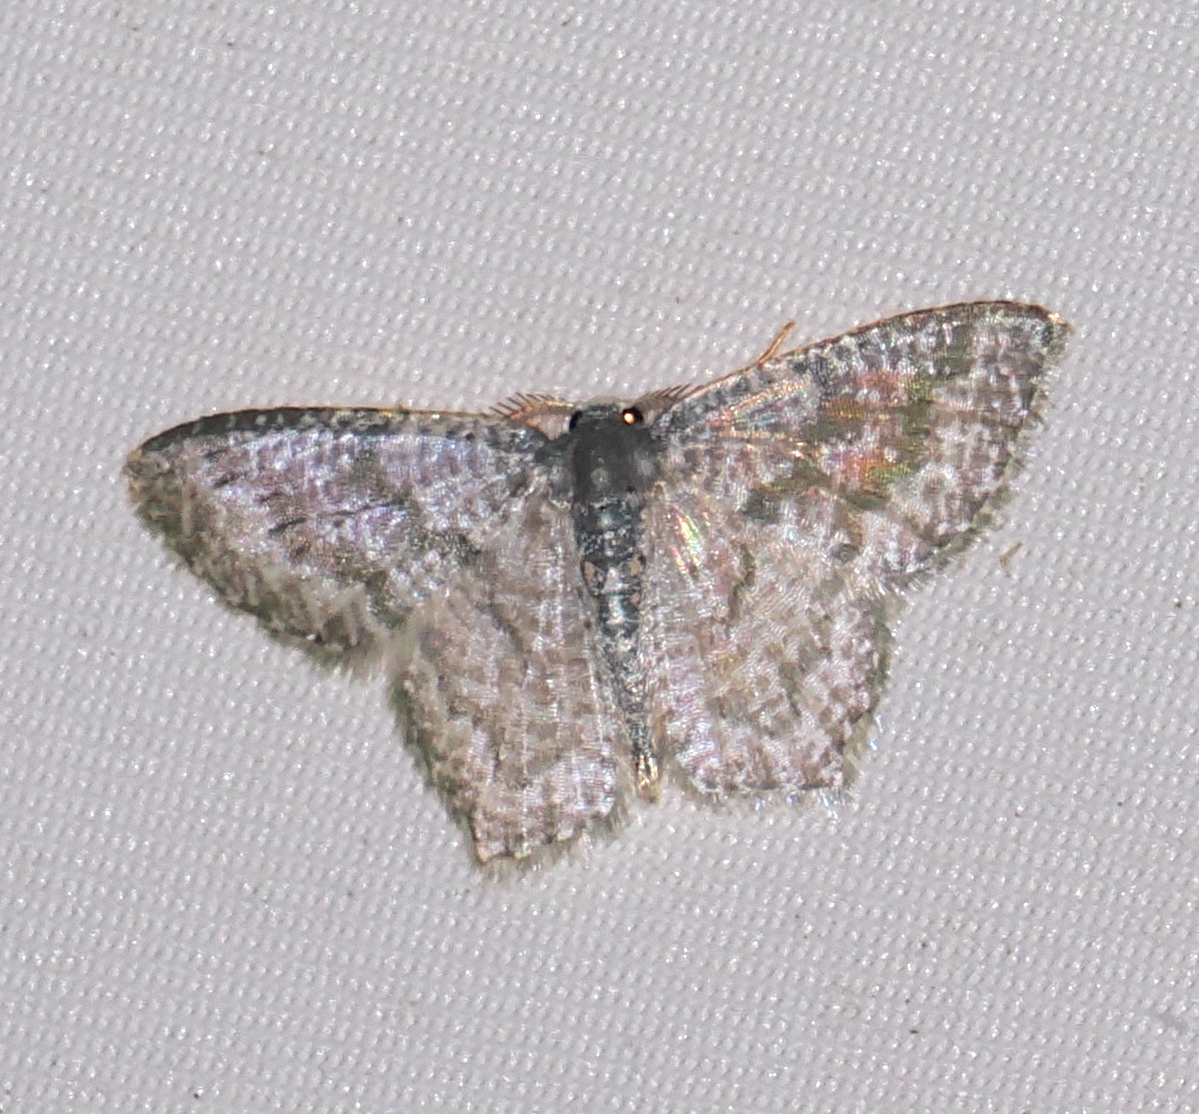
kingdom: Animalia
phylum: Arthropoda
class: Insecta
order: Lepidoptera
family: Geometridae
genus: Chloropteryx
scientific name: Chloropteryx opalaria
